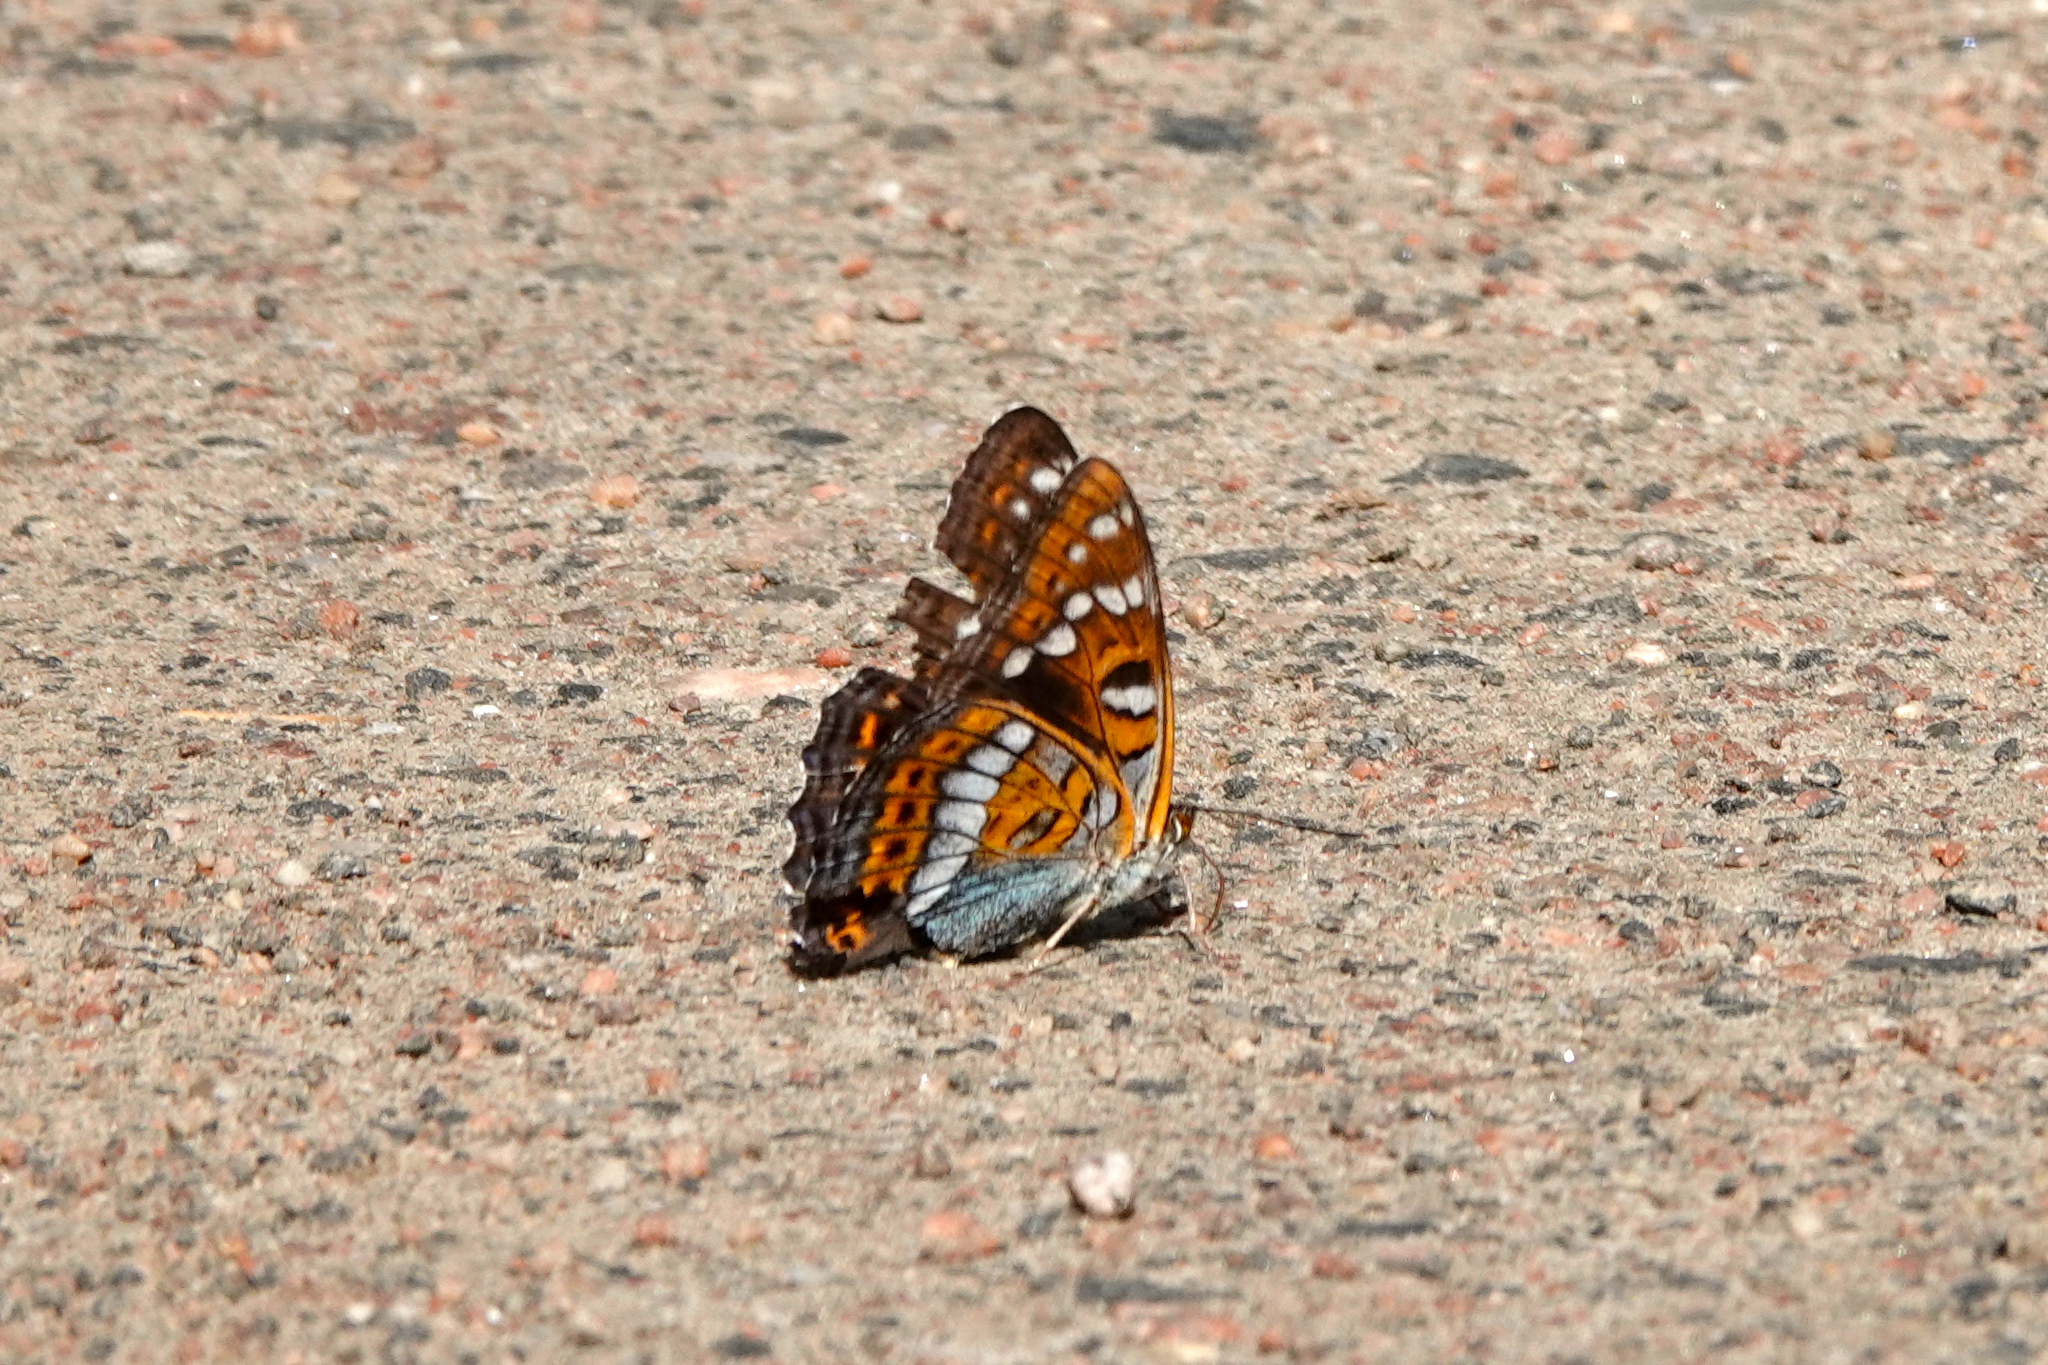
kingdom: Animalia
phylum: Arthropoda
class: Insecta
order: Lepidoptera
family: Nymphalidae
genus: Limenitis
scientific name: Limenitis populi
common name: Poplar admiral
